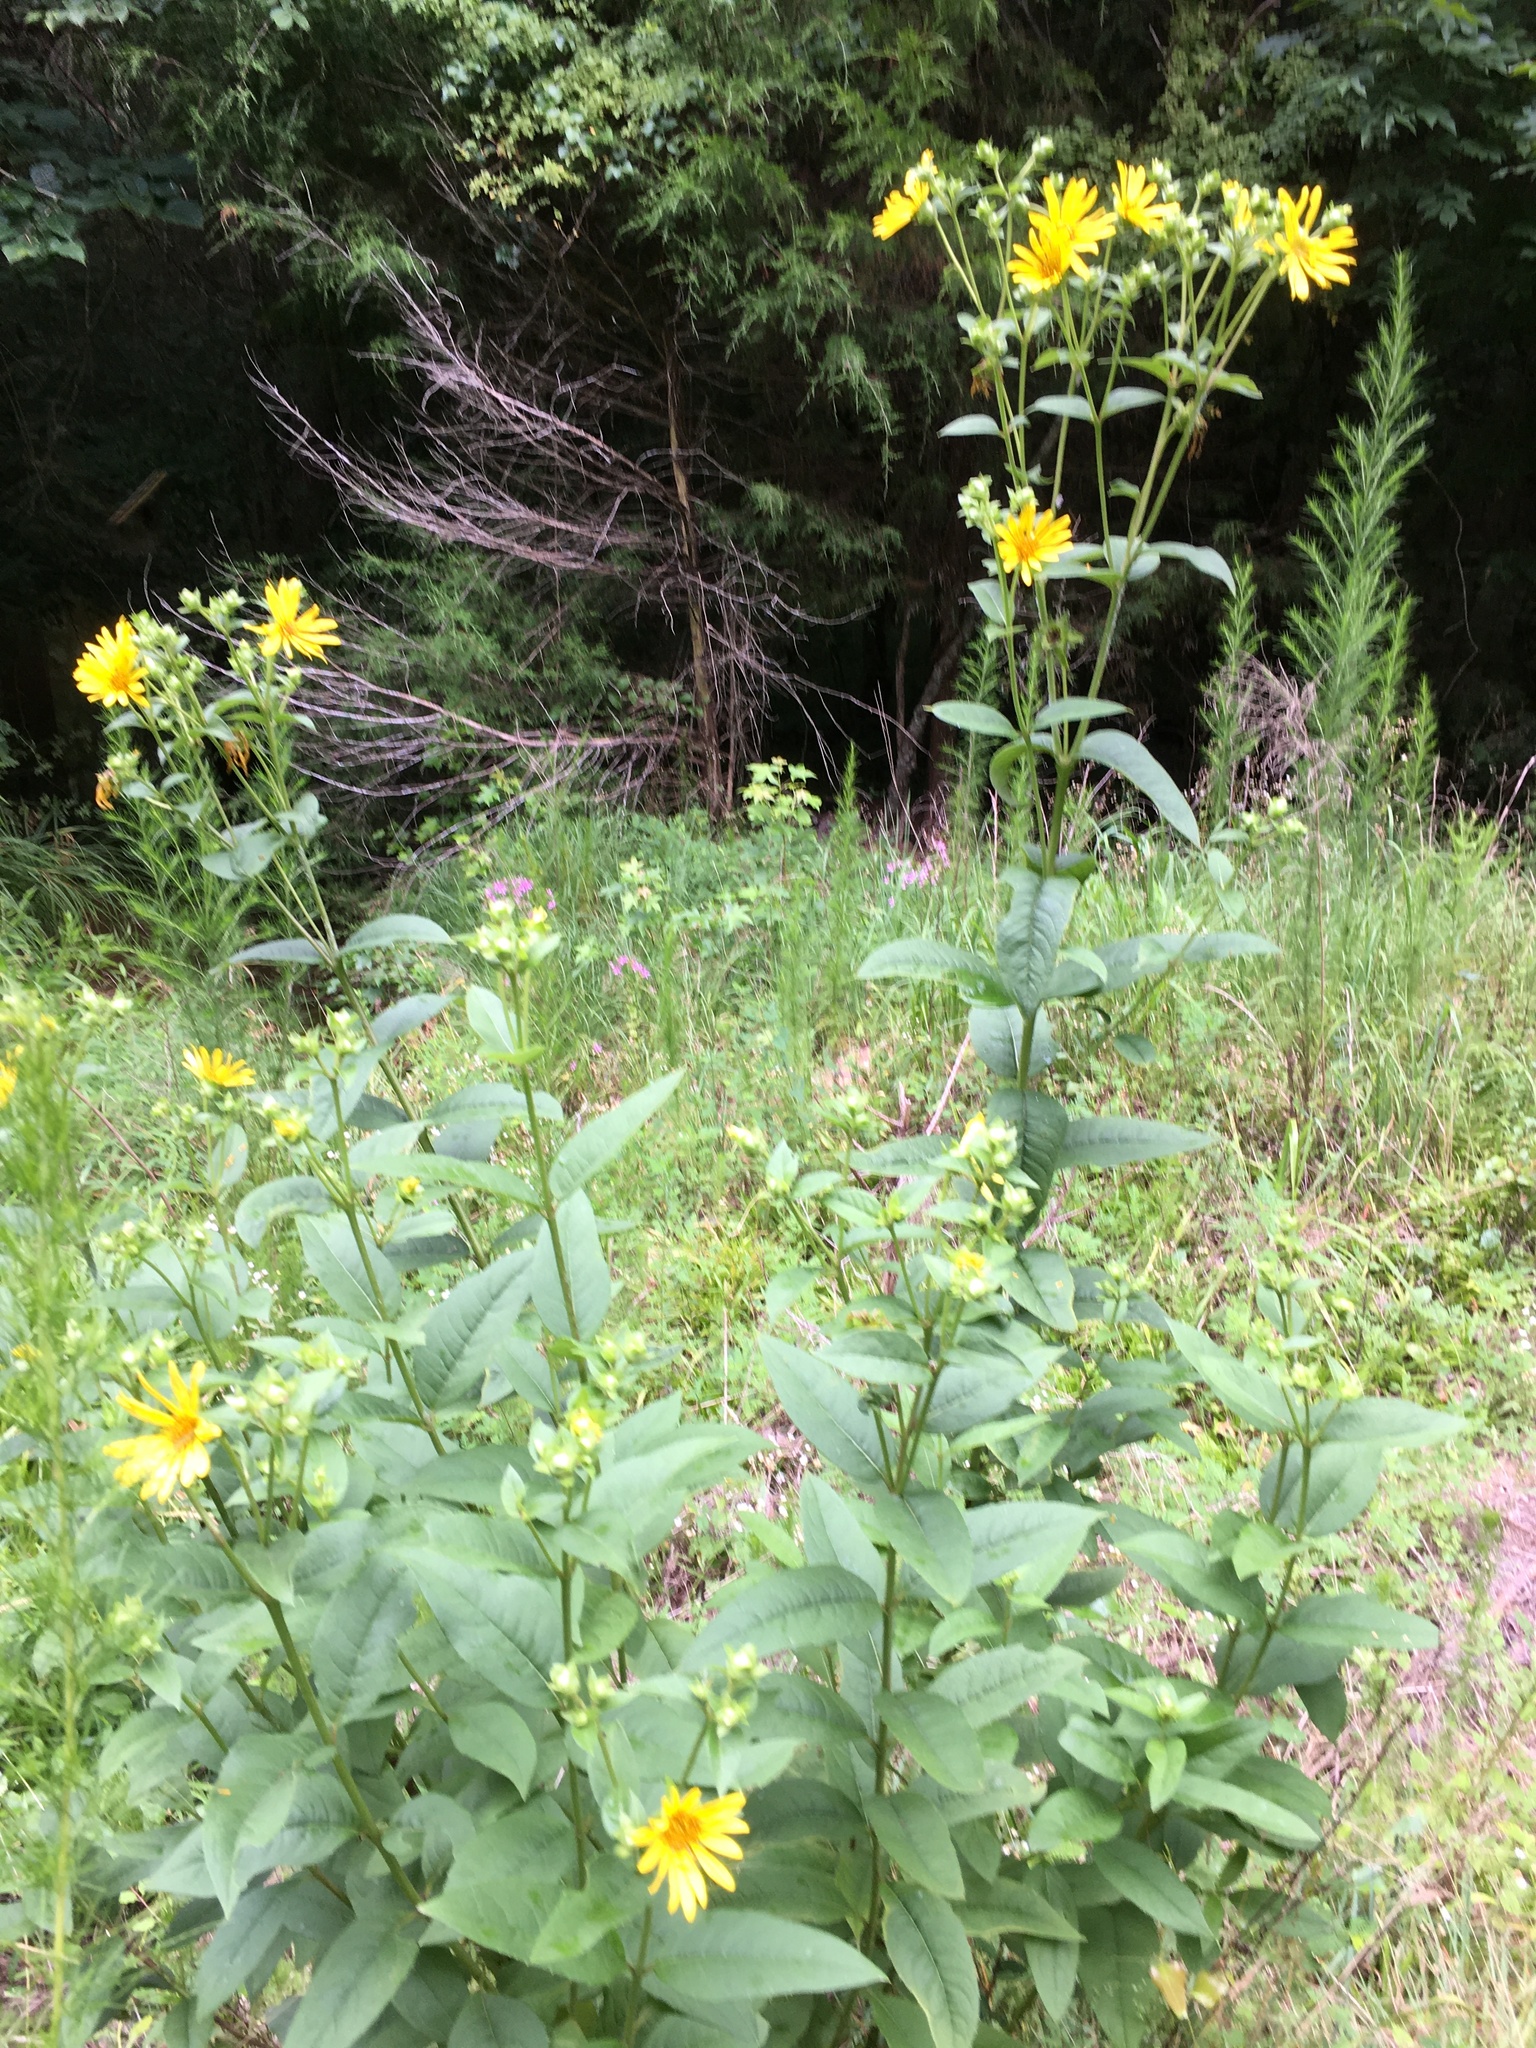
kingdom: Plantae
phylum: Tracheophyta
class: Magnoliopsida
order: Asterales
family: Asteraceae
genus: Silphium
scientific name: Silphium asteriscus
